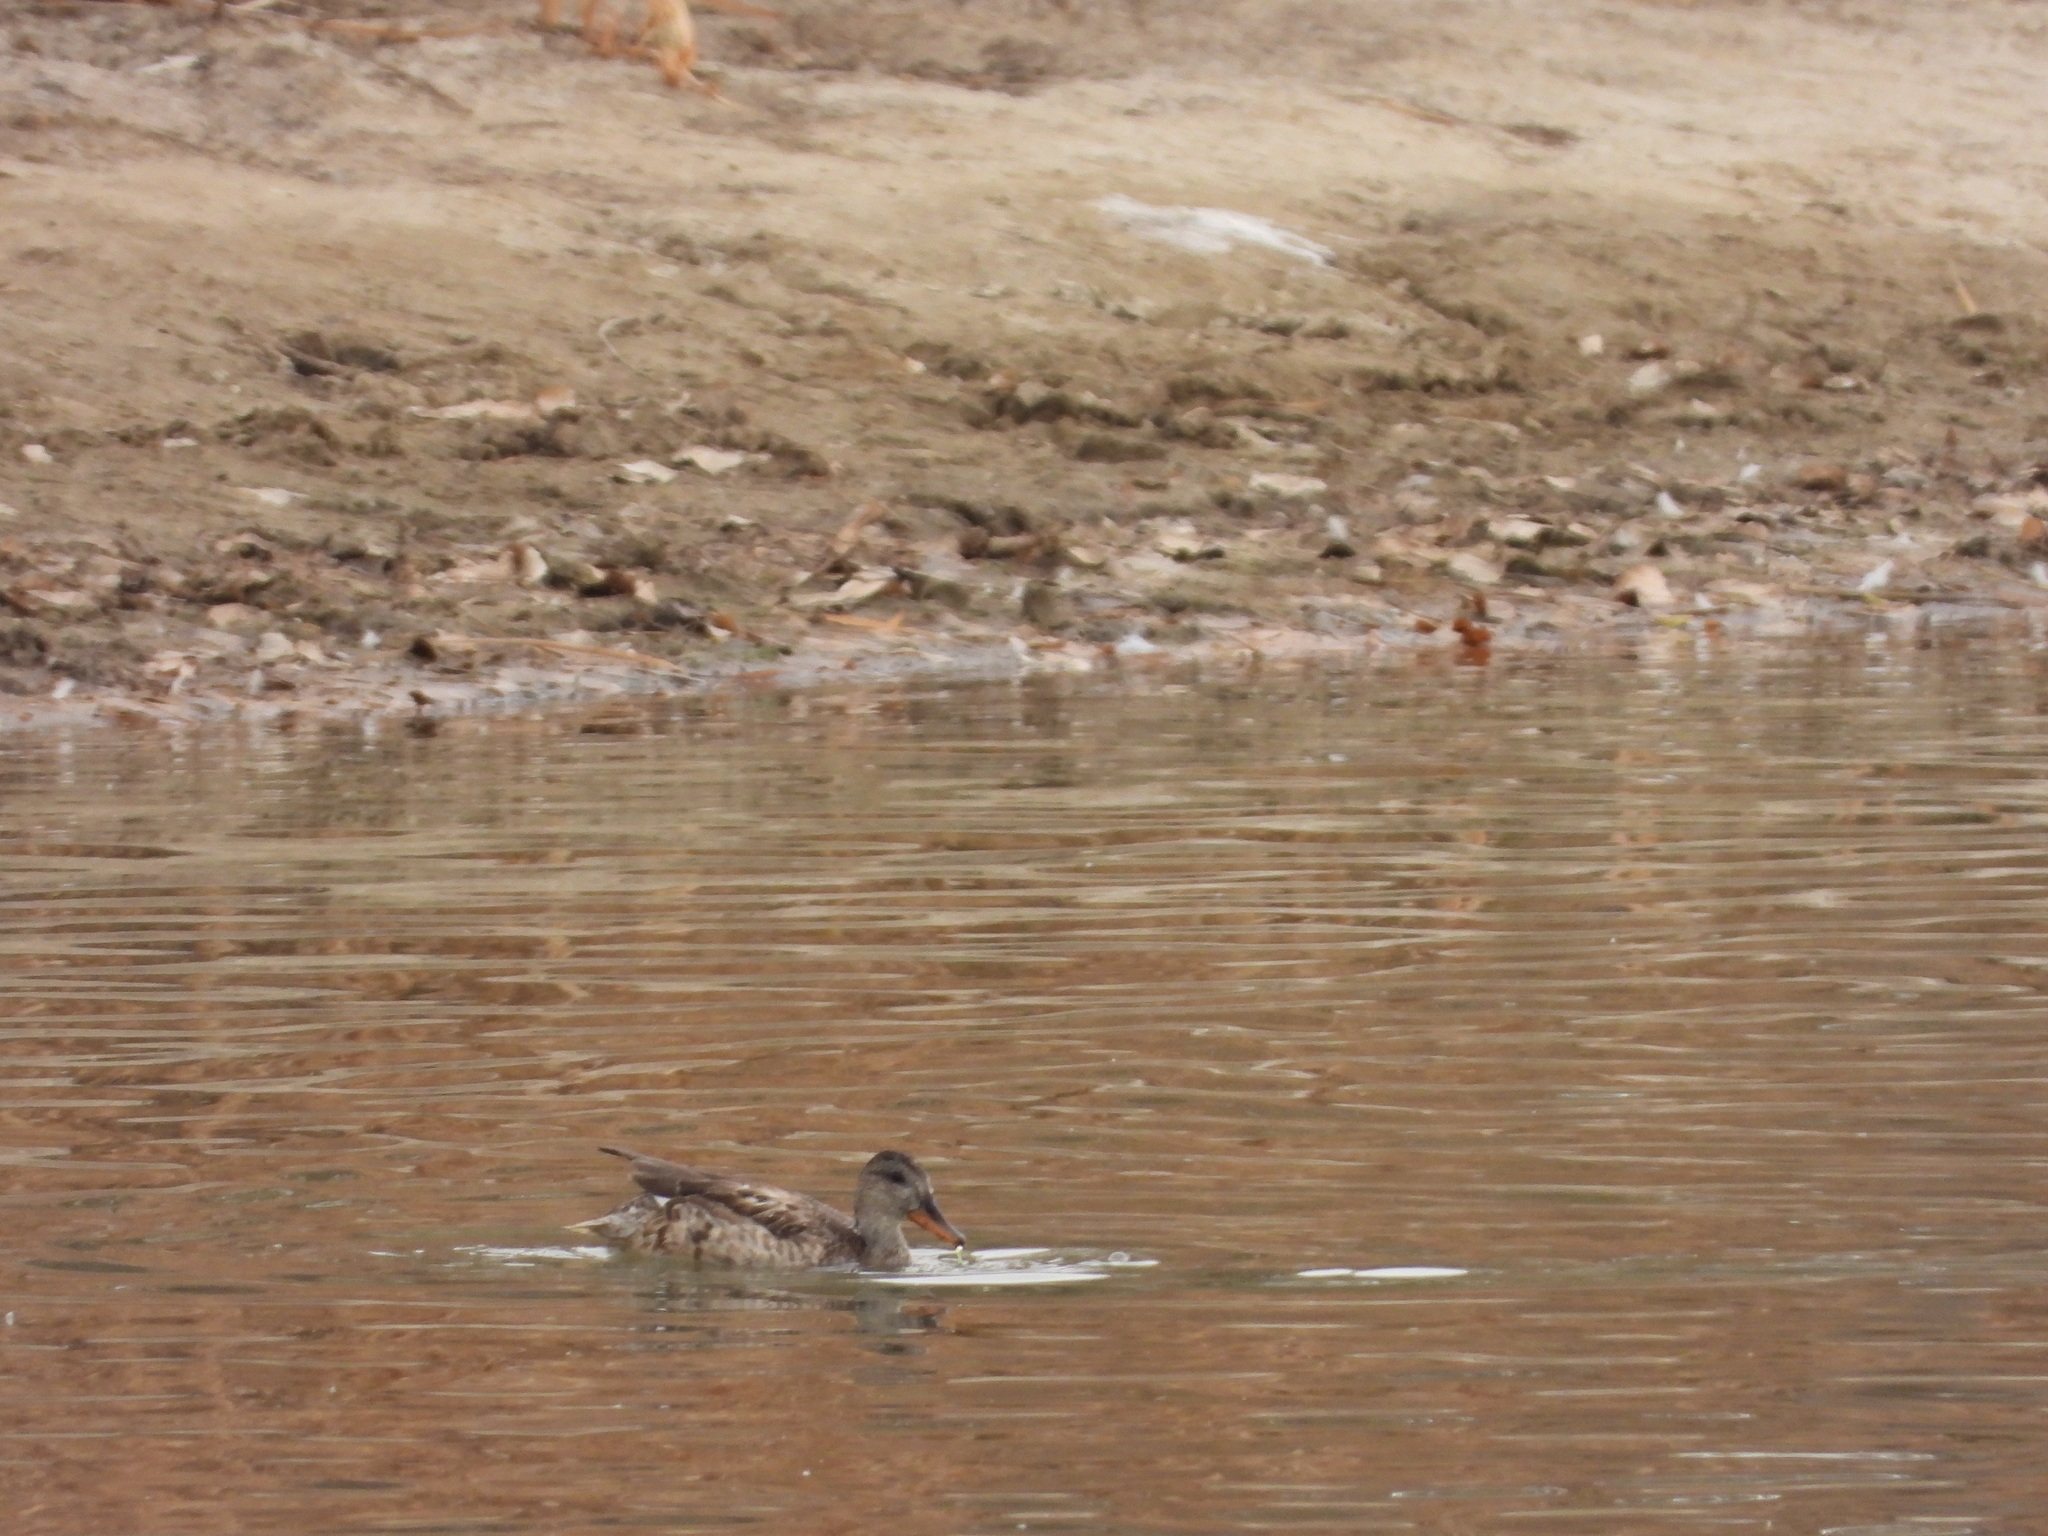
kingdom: Animalia
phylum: Chordata
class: Aves
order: Anseriformes
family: Anatidae
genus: Anas
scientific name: Anas platyrhynchos
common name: Mallard
